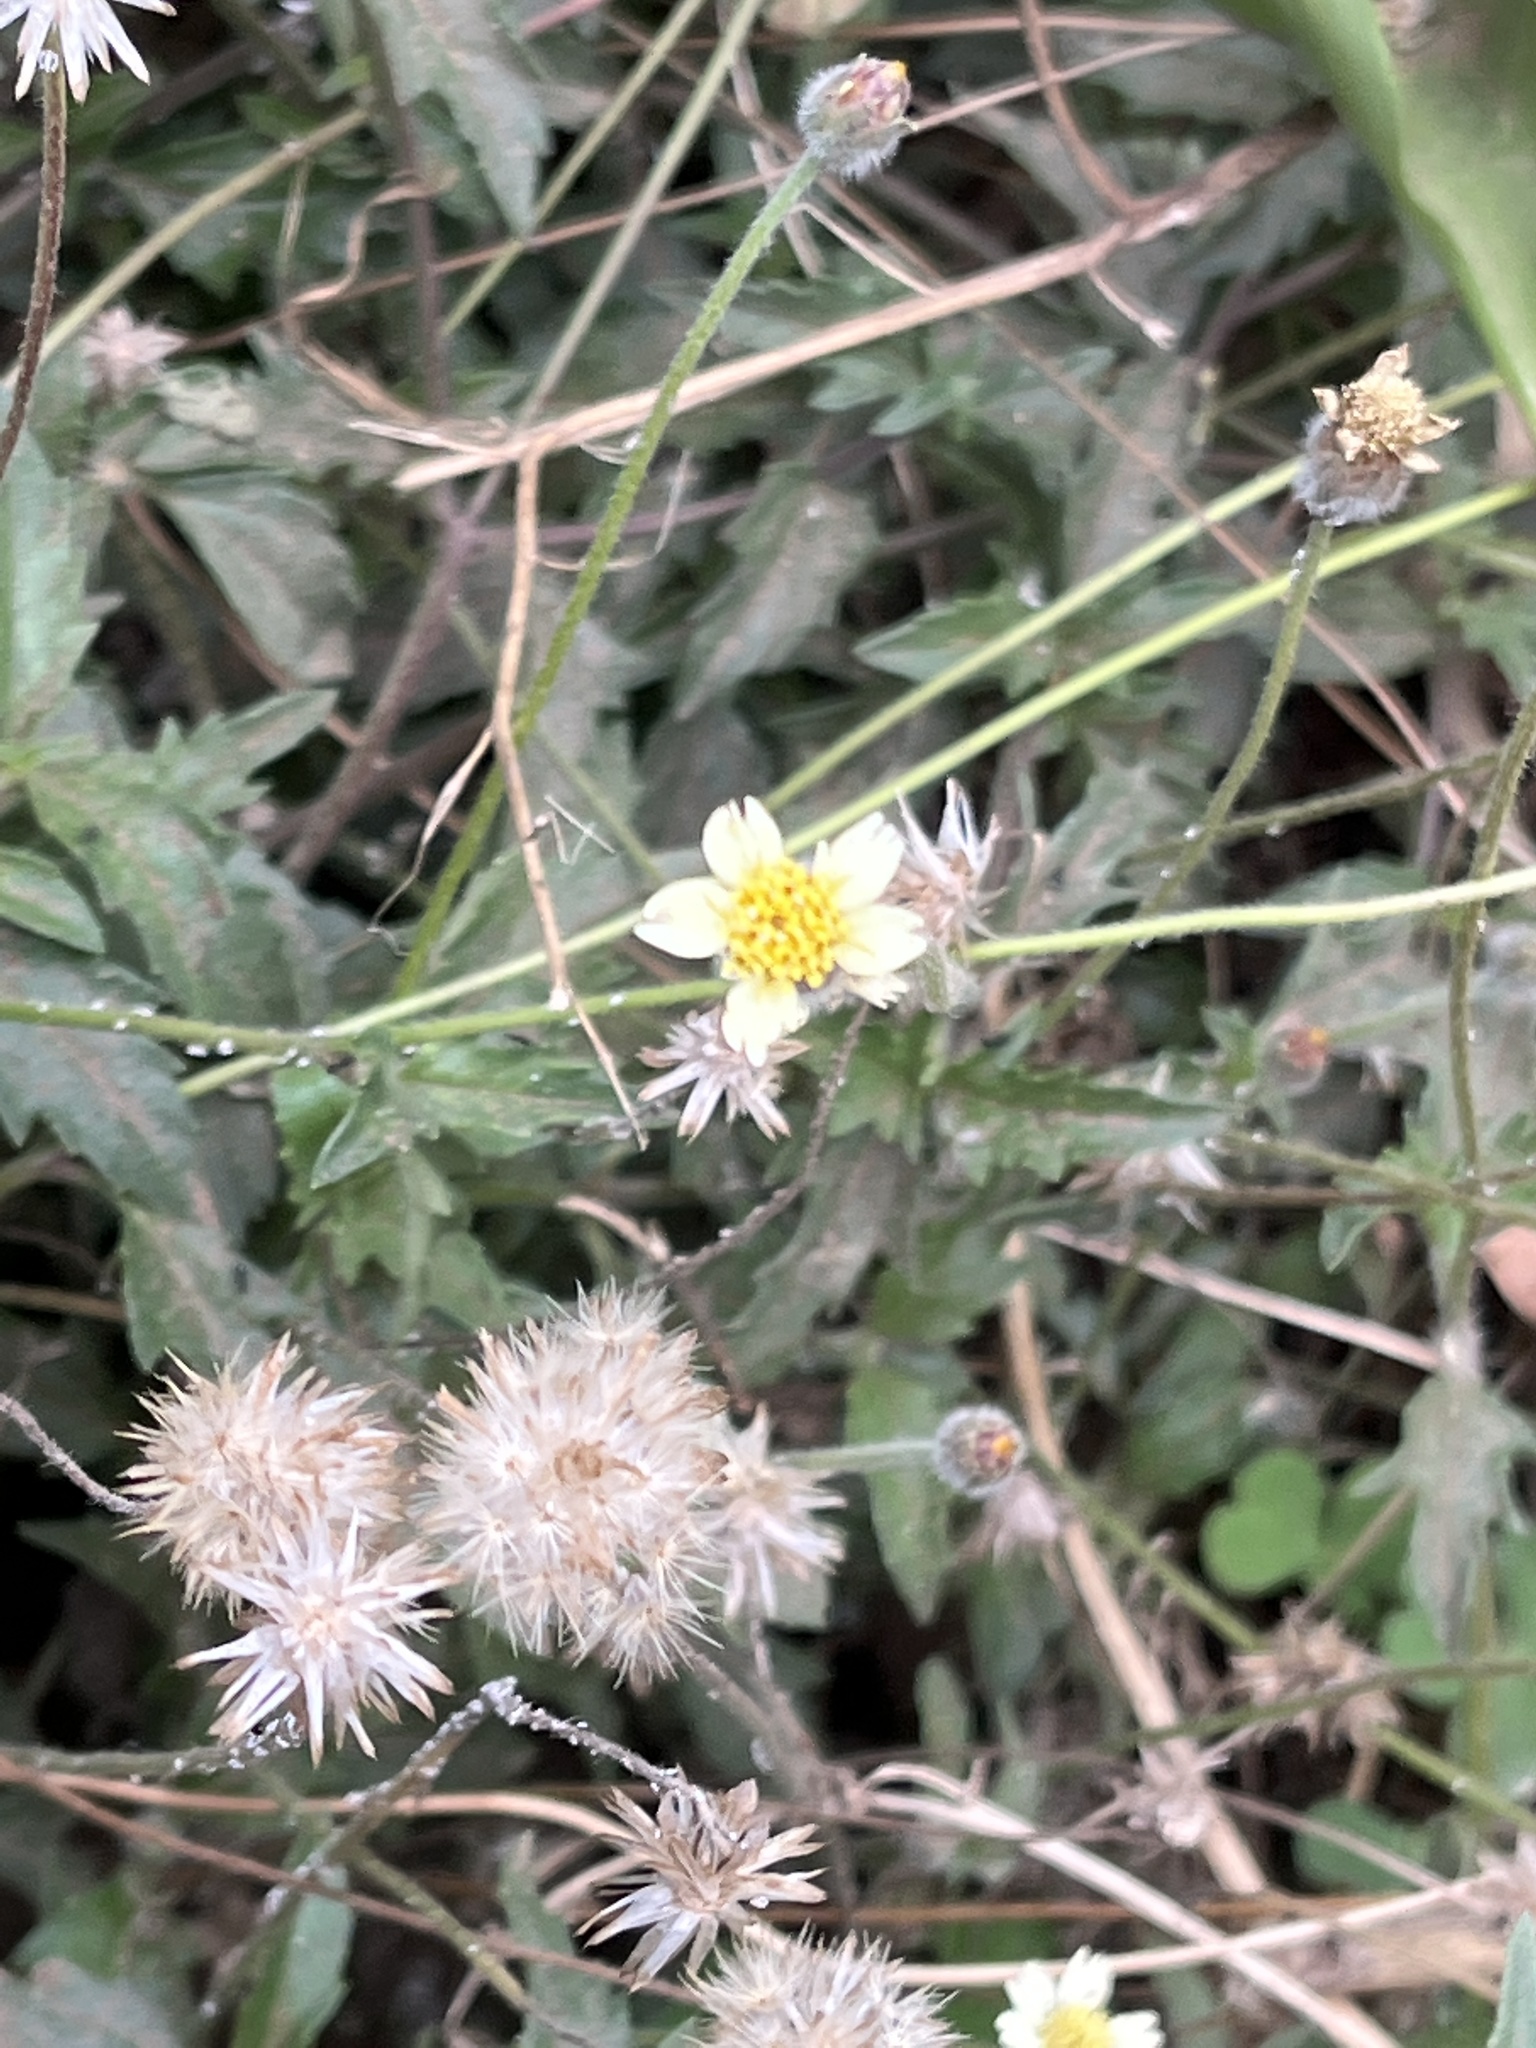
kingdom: Plantae
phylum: Tracheophyta
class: Magnoliopsida
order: Asterales
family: Asteraceae
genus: Tridax
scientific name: Tridax procumbens
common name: Coatbuttons
